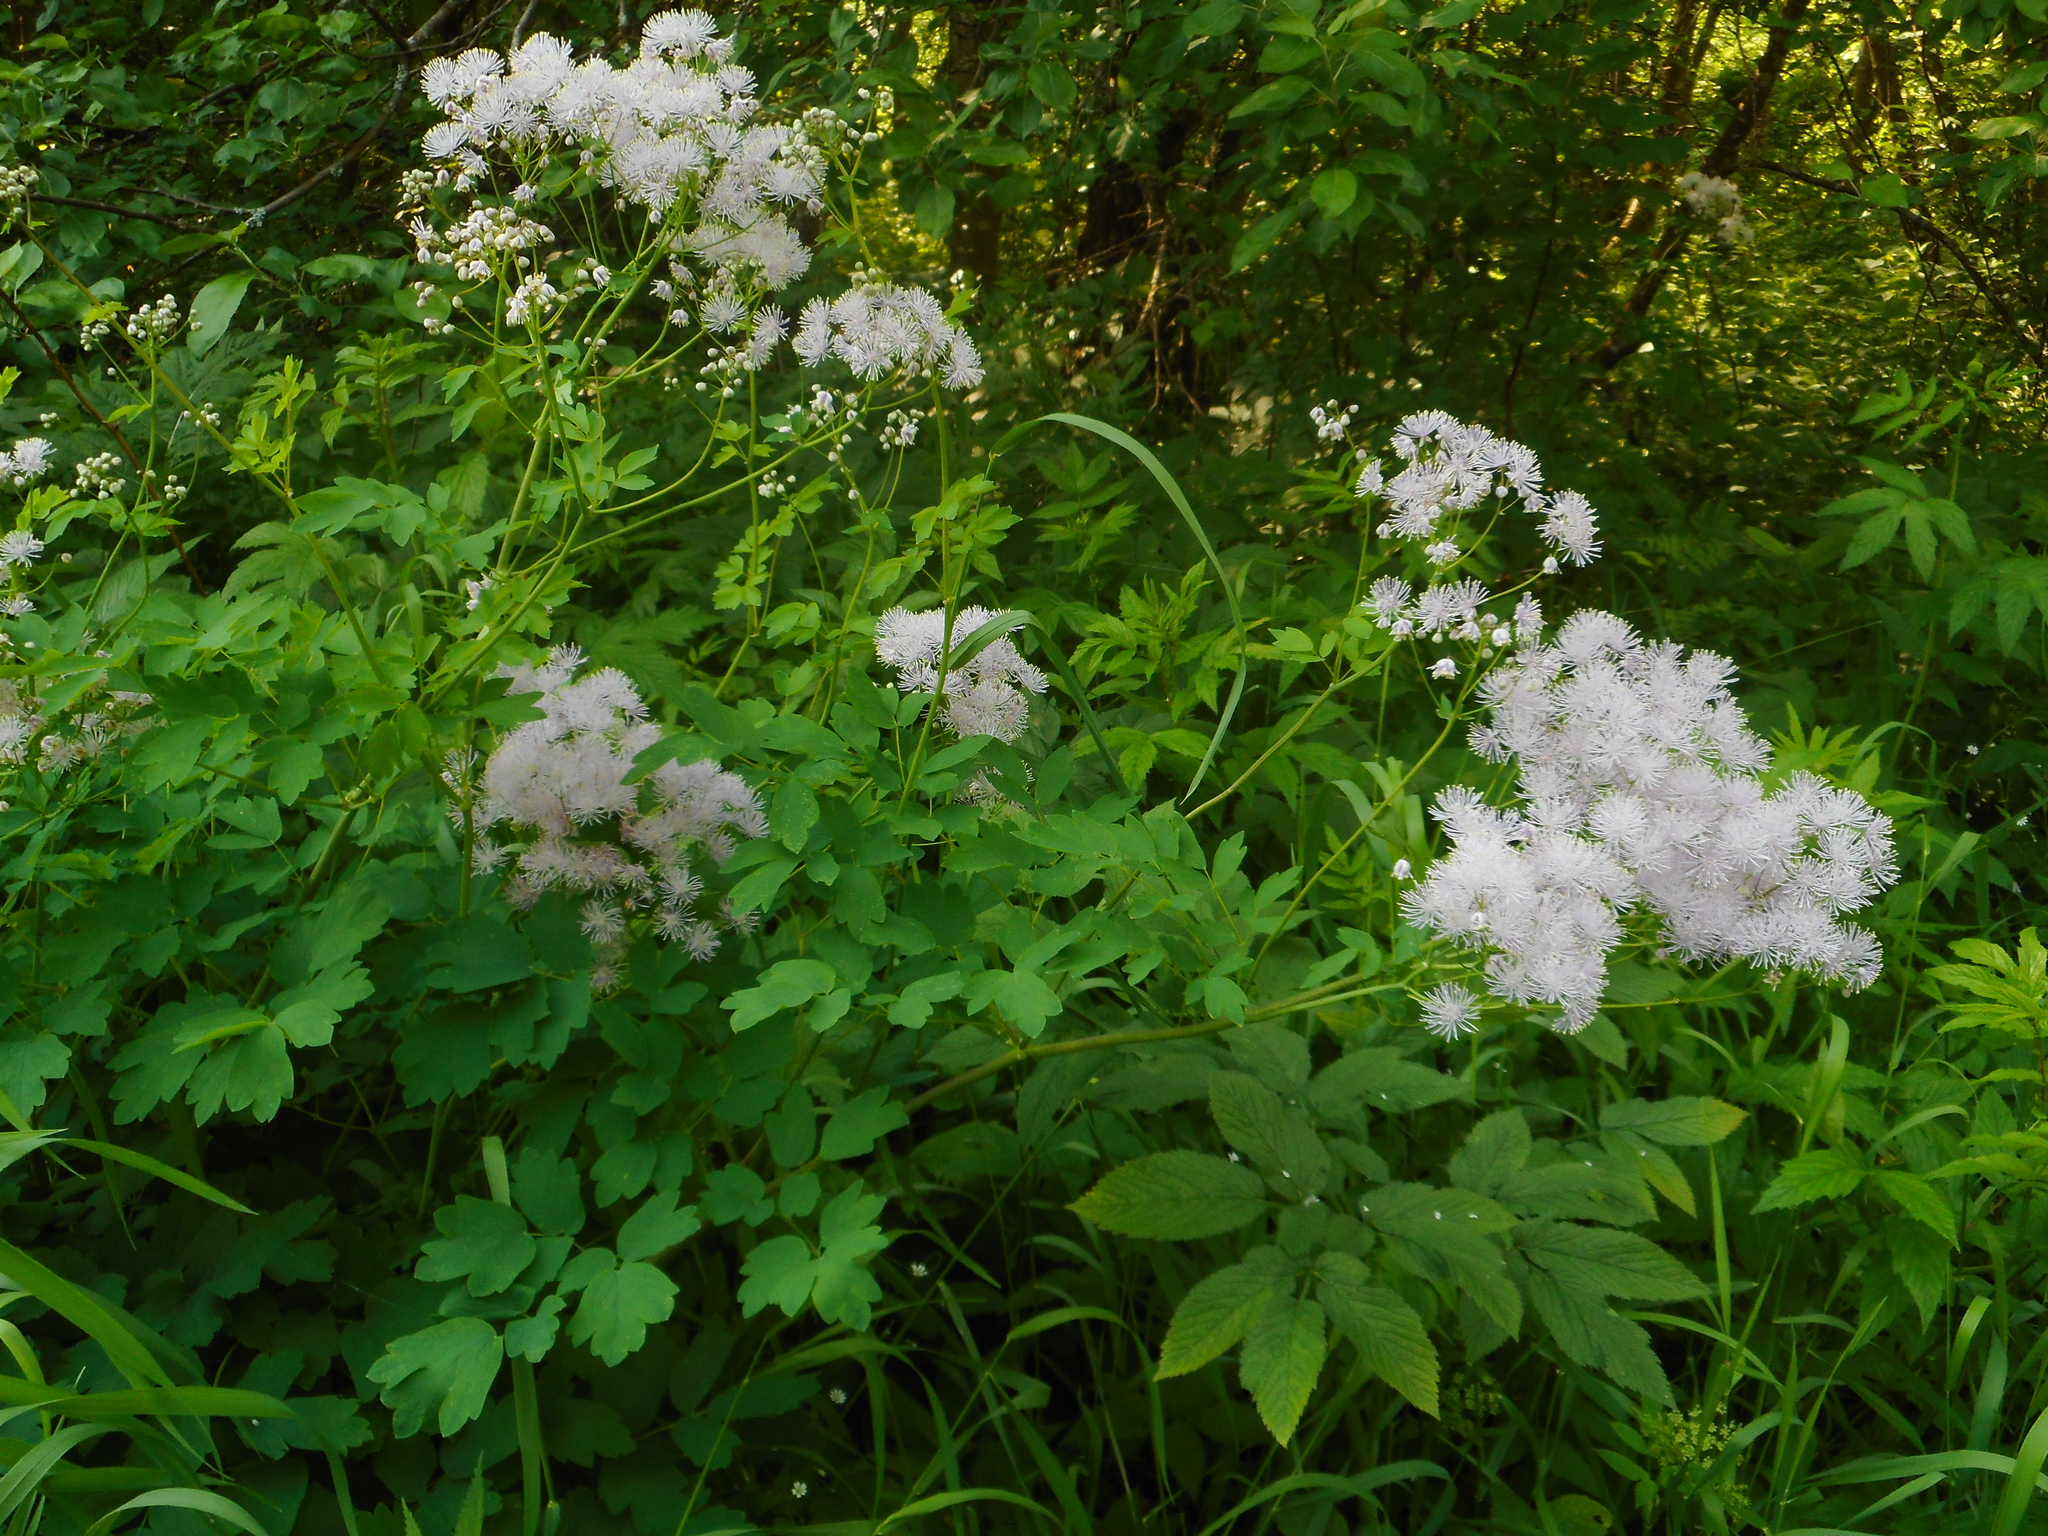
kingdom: Plantae
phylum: Tracheophyta
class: Magnoliopsida
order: Ranunculales
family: Ranunculaceae
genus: Thalictrum
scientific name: Thalictrum aquilegiifolium
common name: French meadow-rue
